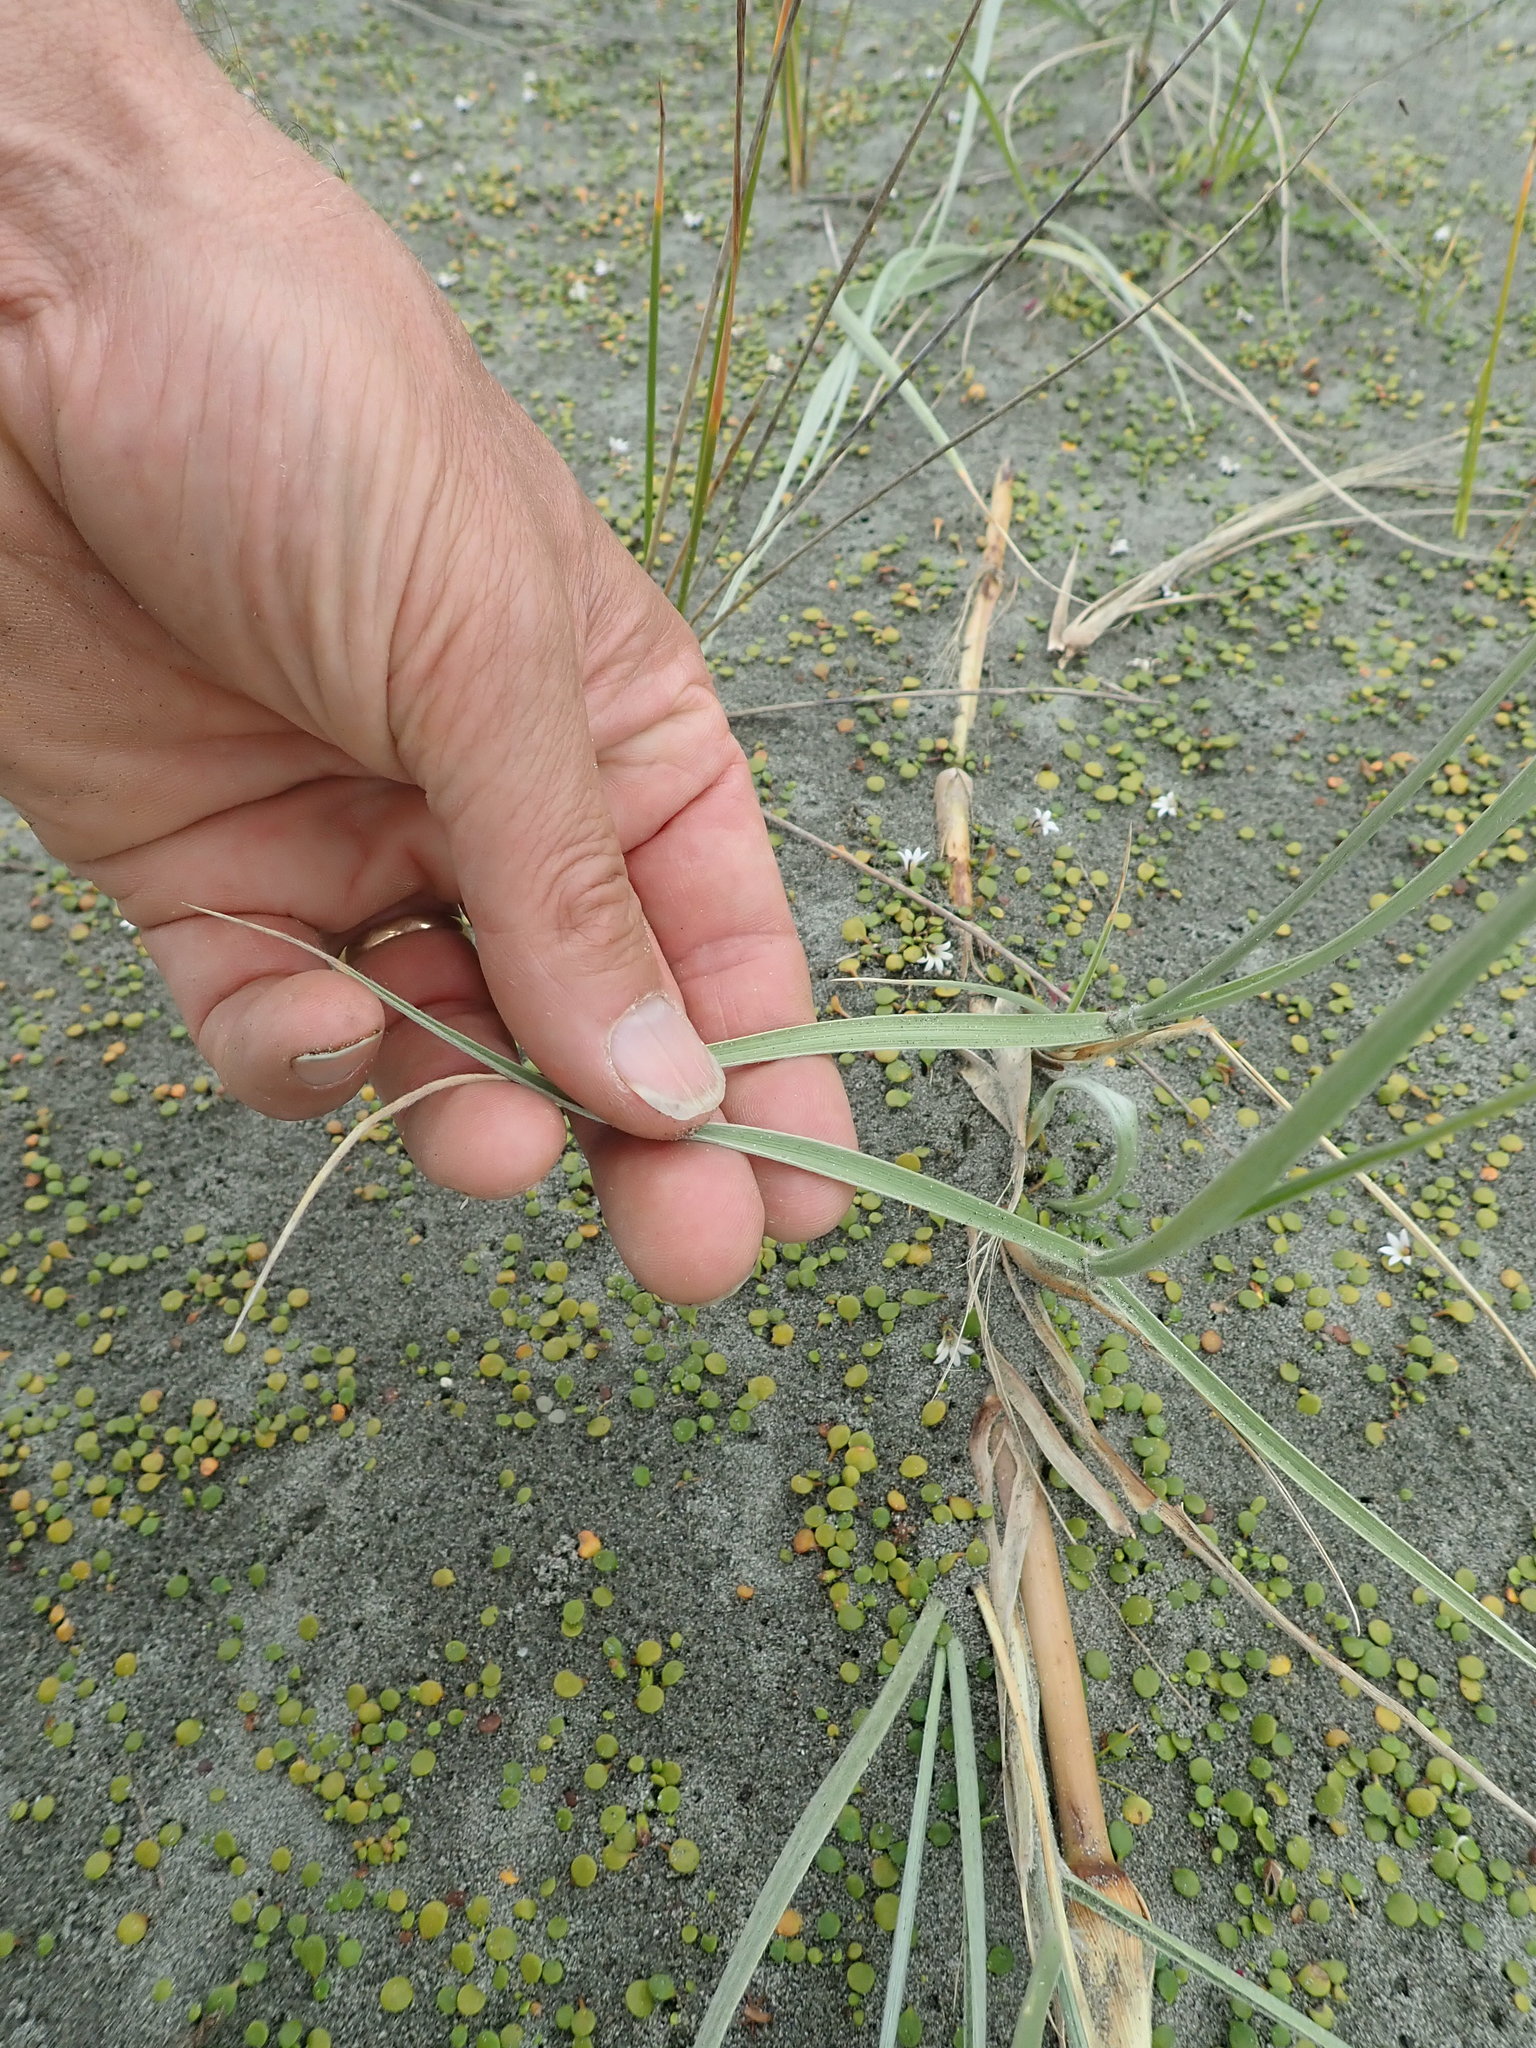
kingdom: Plantae
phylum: Tracheophyta
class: Liliopsida
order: Poales
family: Poaceae
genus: Spinifex
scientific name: Spinifex sericeus
